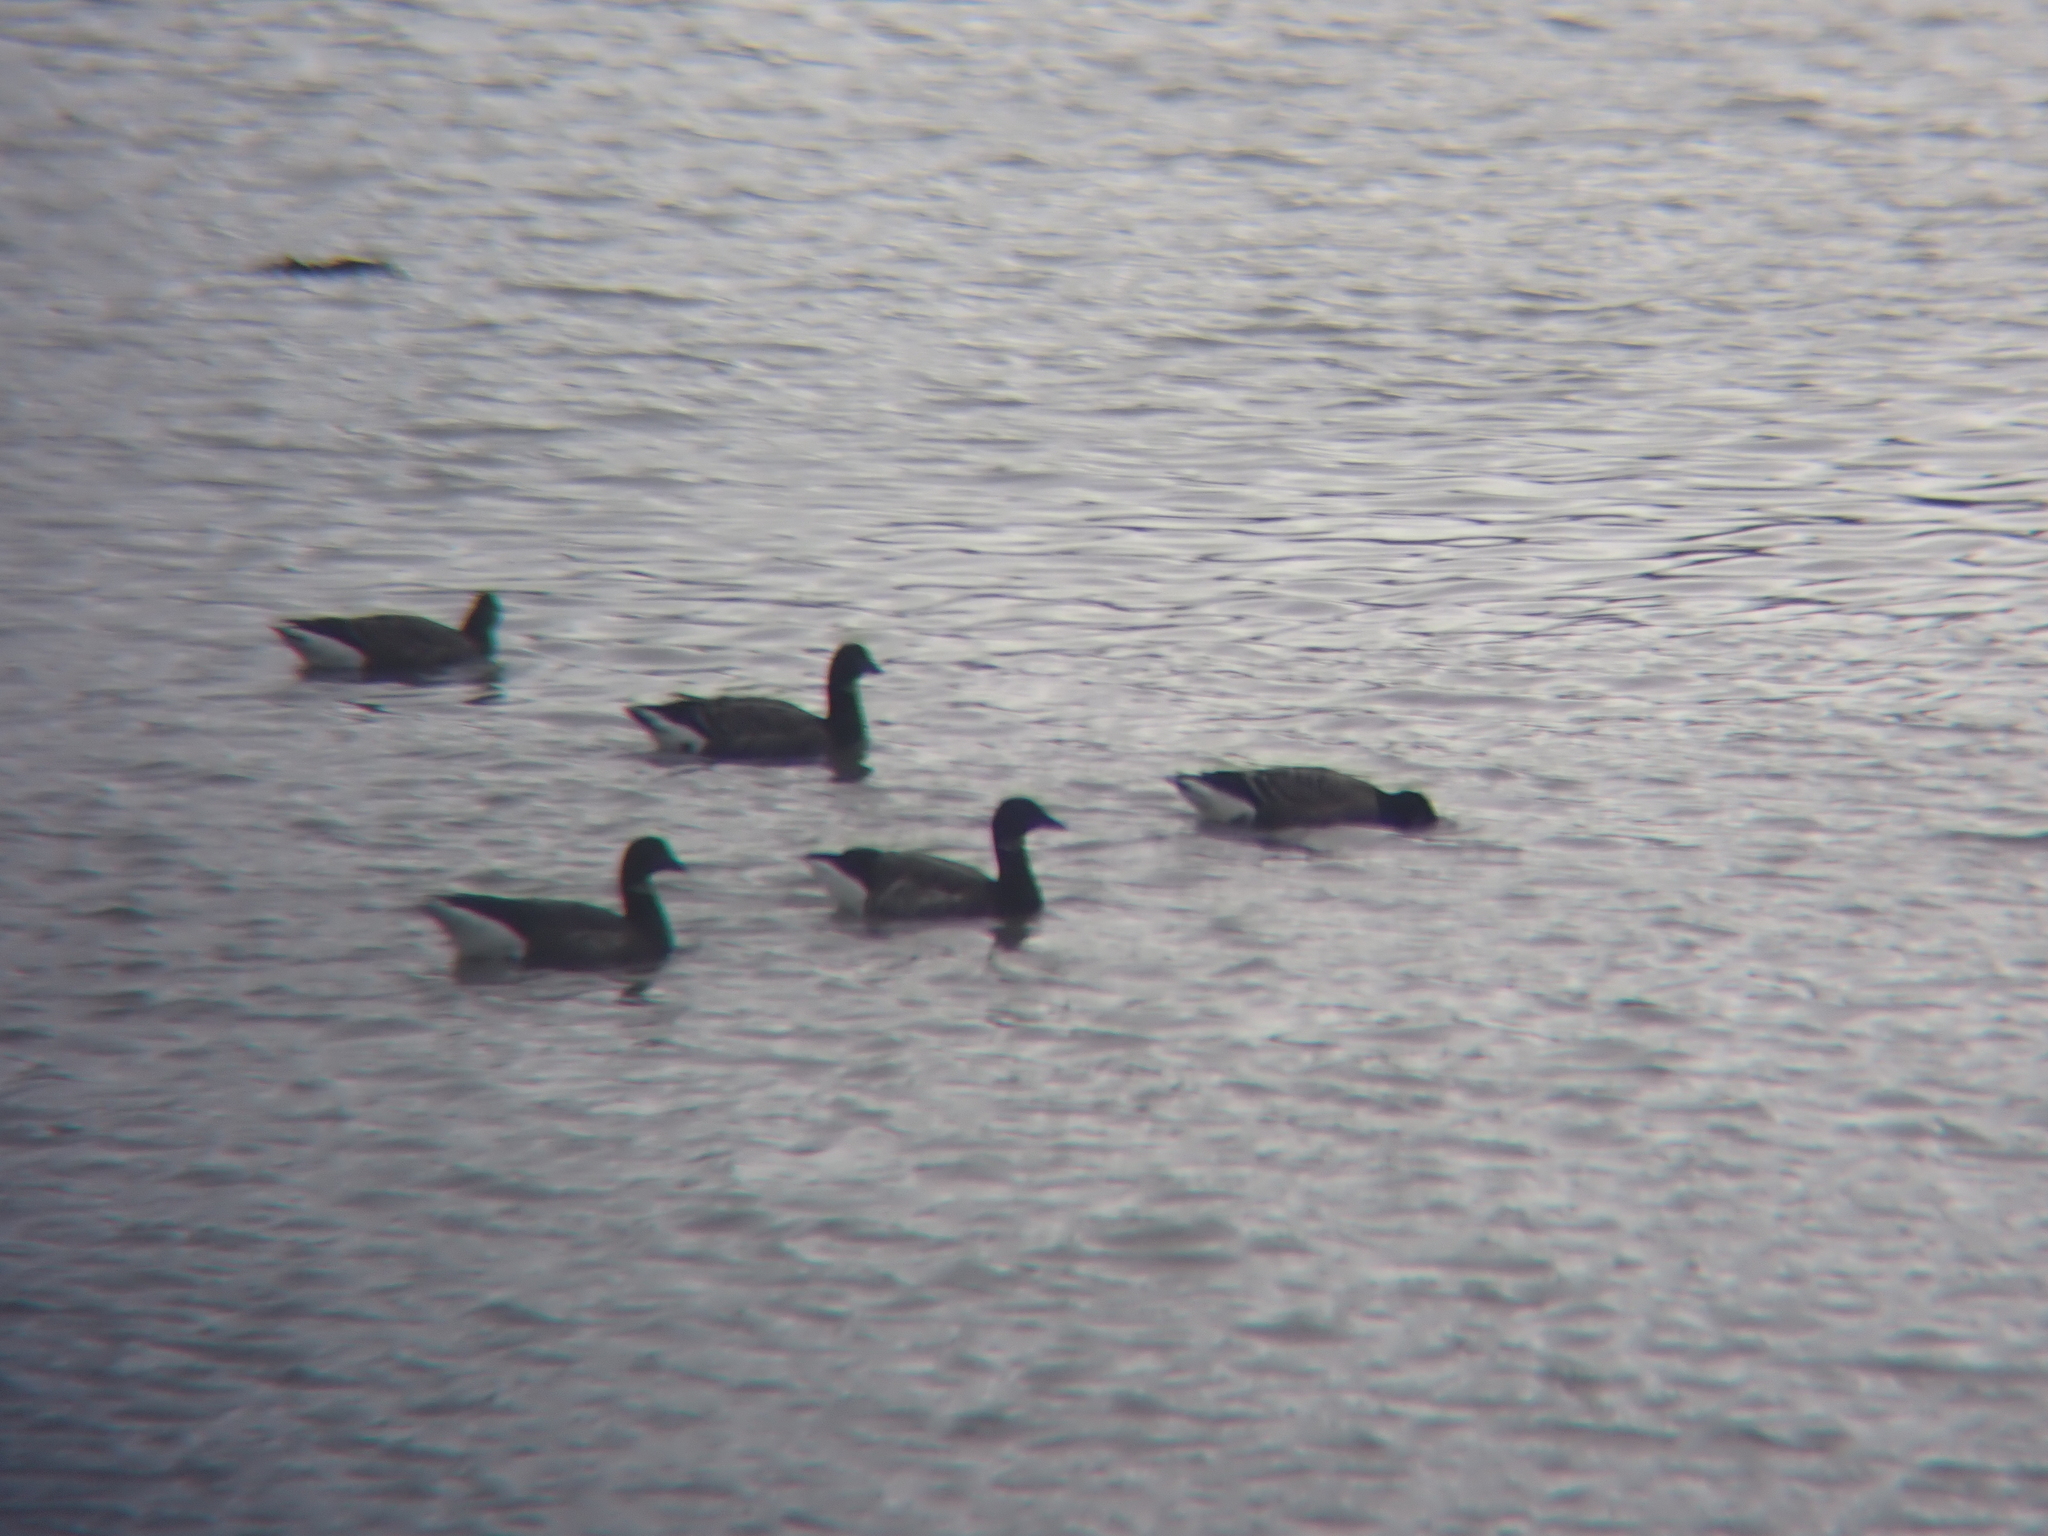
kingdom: Animalia
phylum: Chordata
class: Aves
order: Anseriformes
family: Anatidae
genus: Branta
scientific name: Branta bernicla
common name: Brant goose
